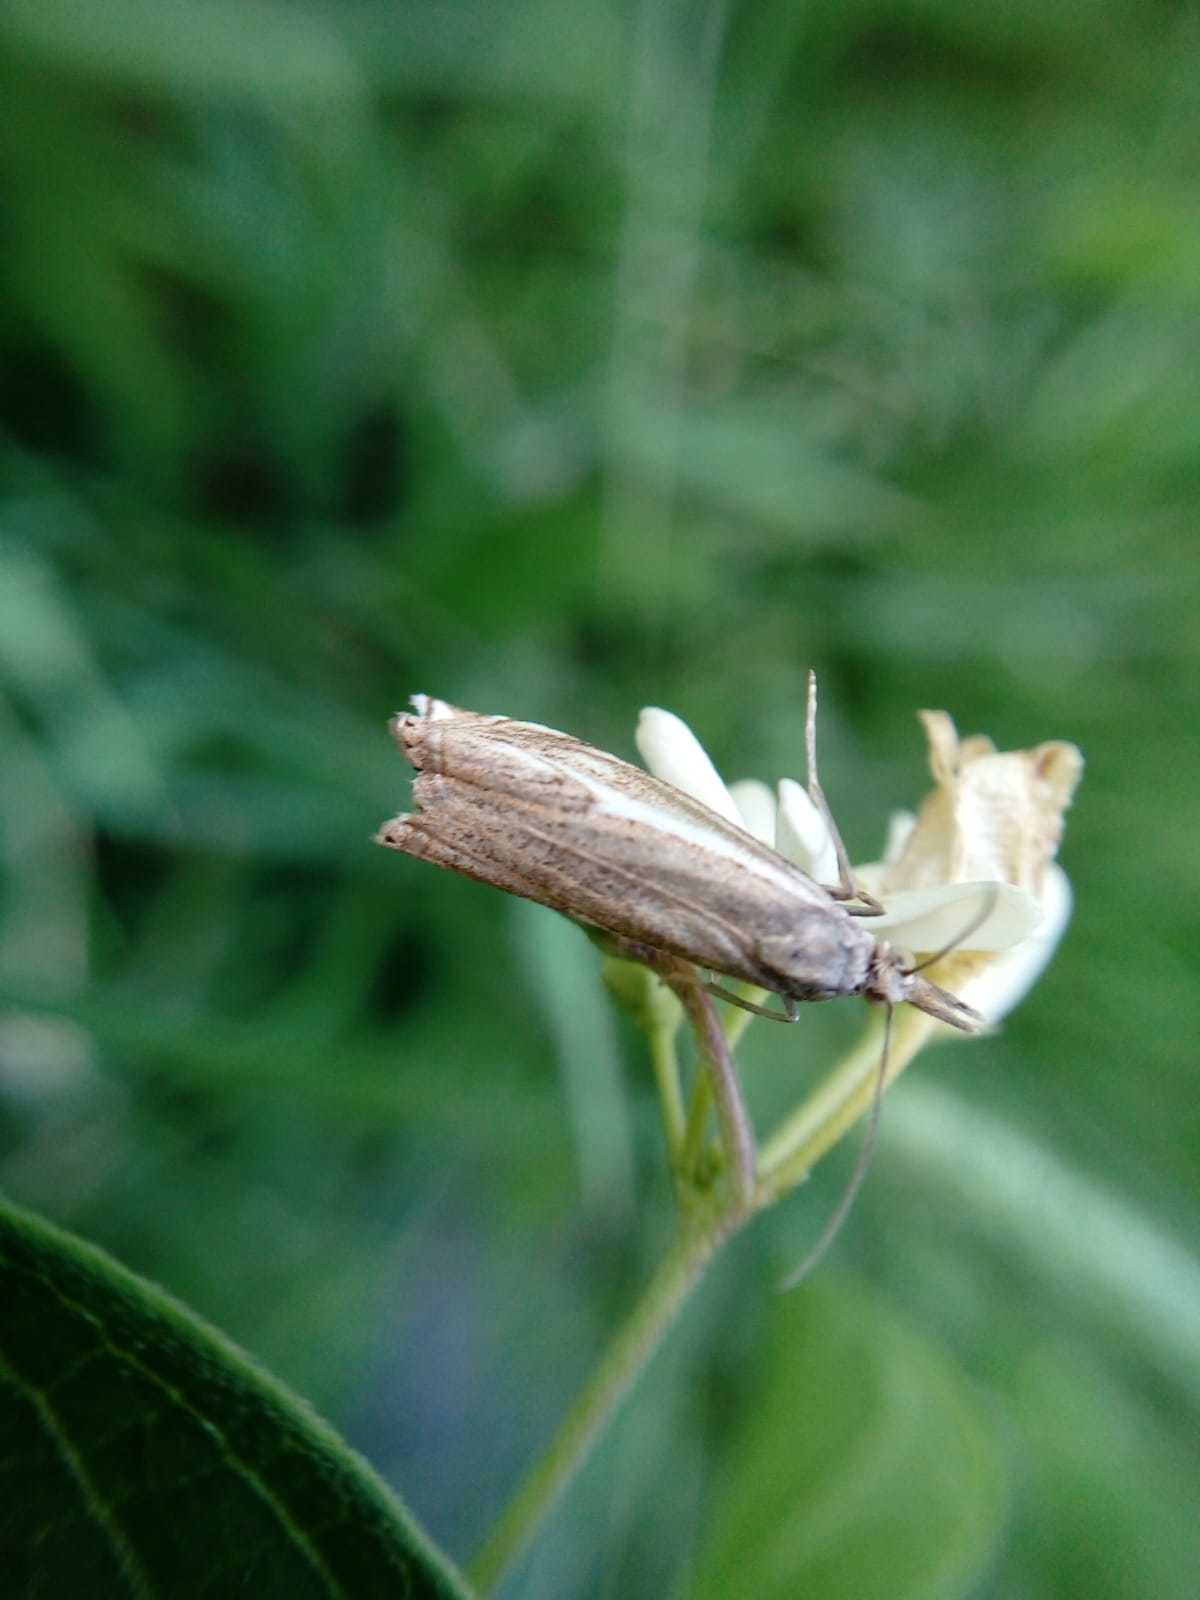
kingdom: Animalia
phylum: Arthropoda
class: Insecta
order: Lepidoptera
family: Crambidae
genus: Crambus
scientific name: Crambus nemorella
